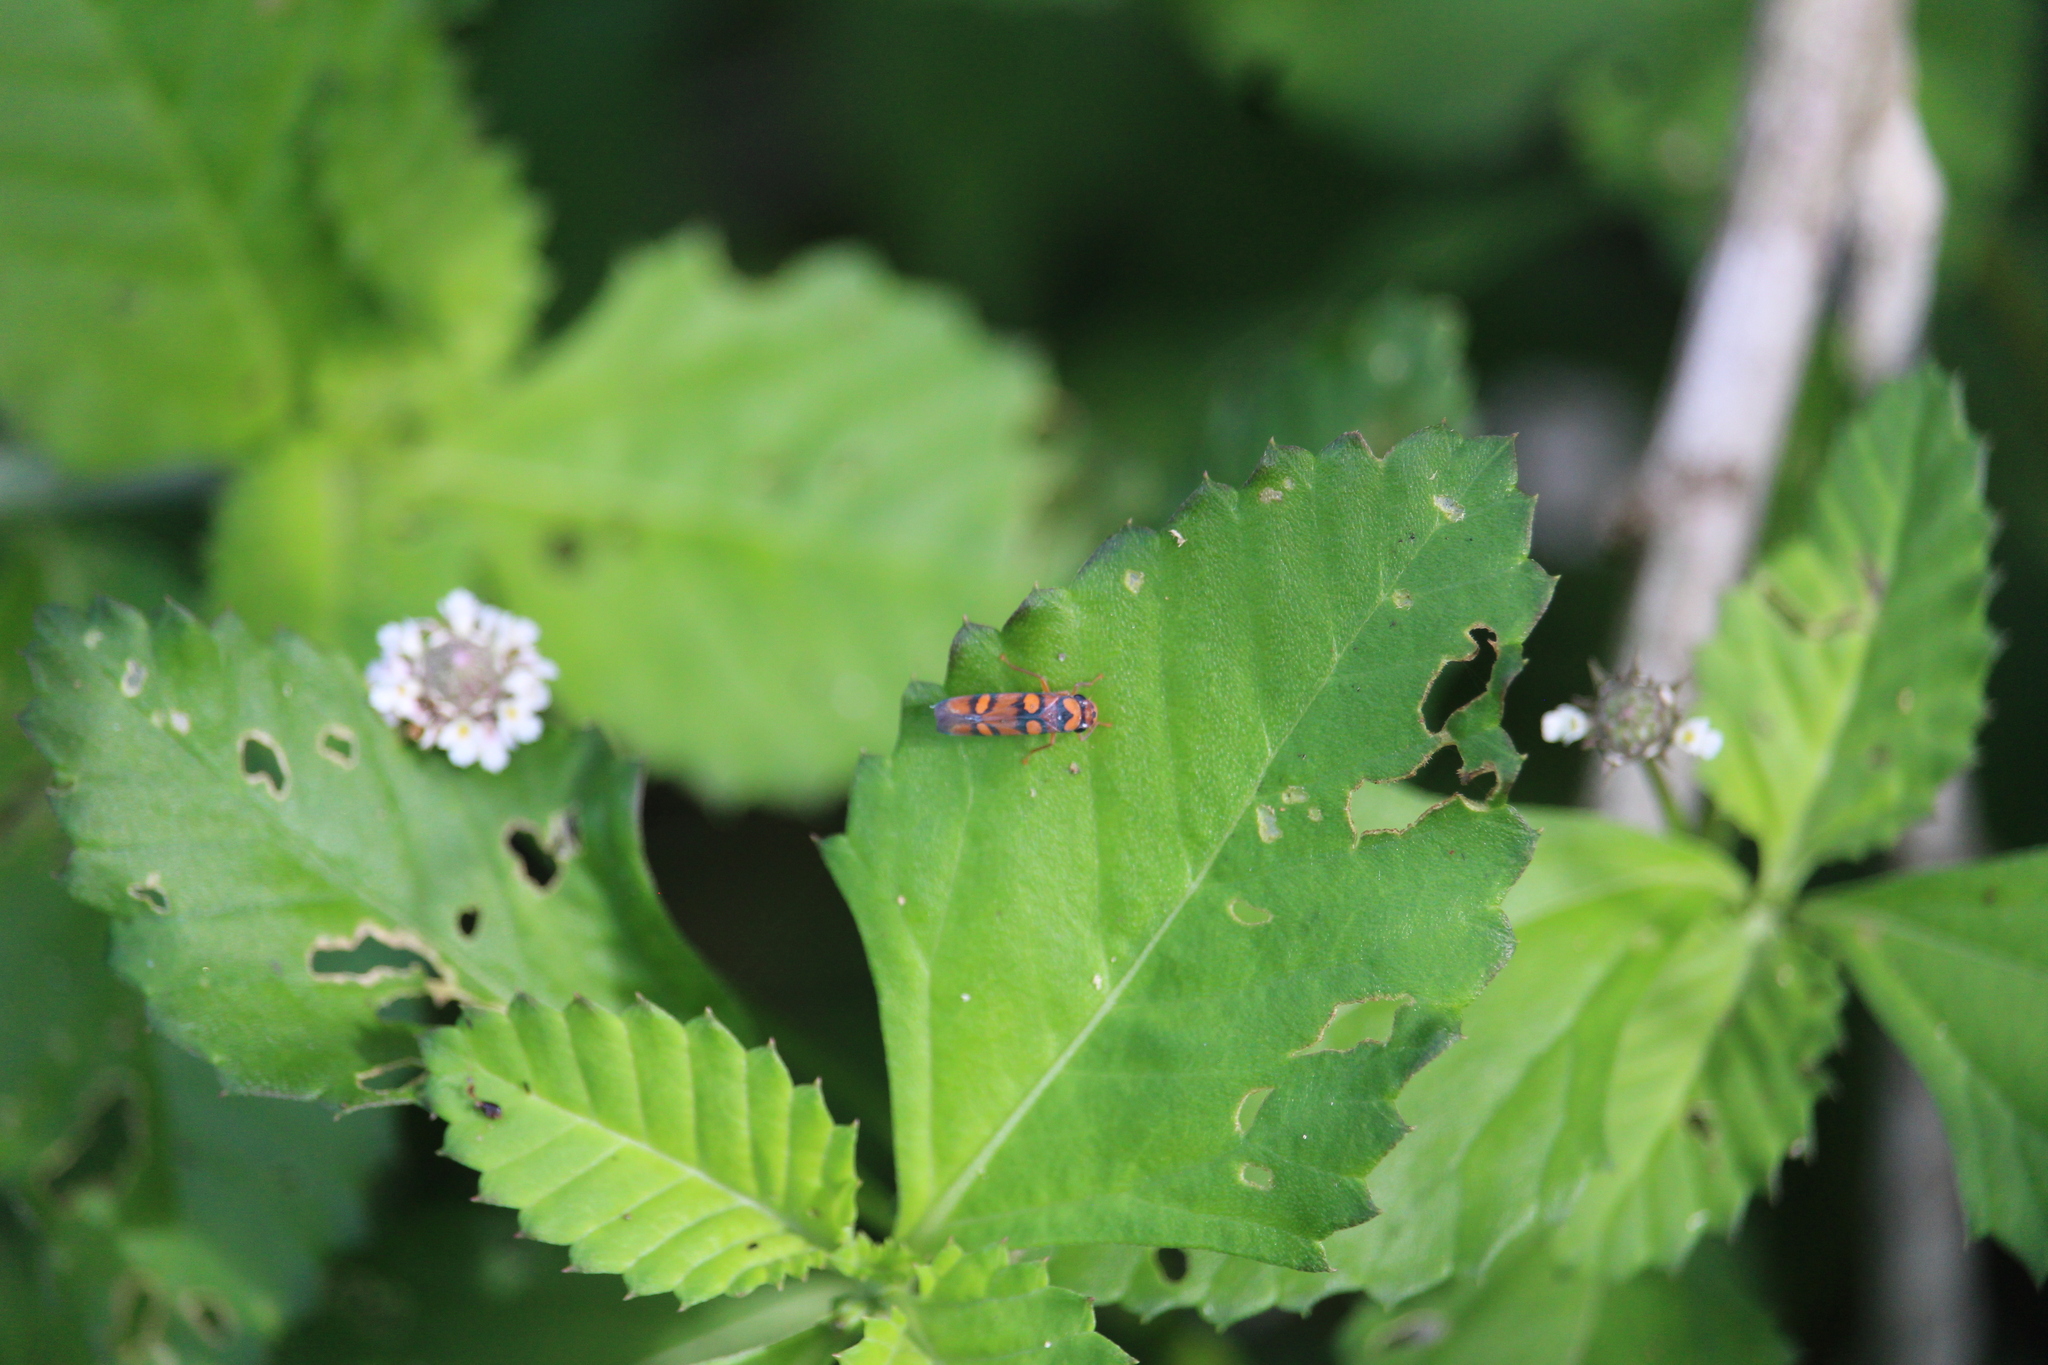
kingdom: Animalia
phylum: Arthropoda
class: Insecta
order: Hemiptera
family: Cicadellidae
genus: Pawiloma
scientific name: Pawiloma jucunda
